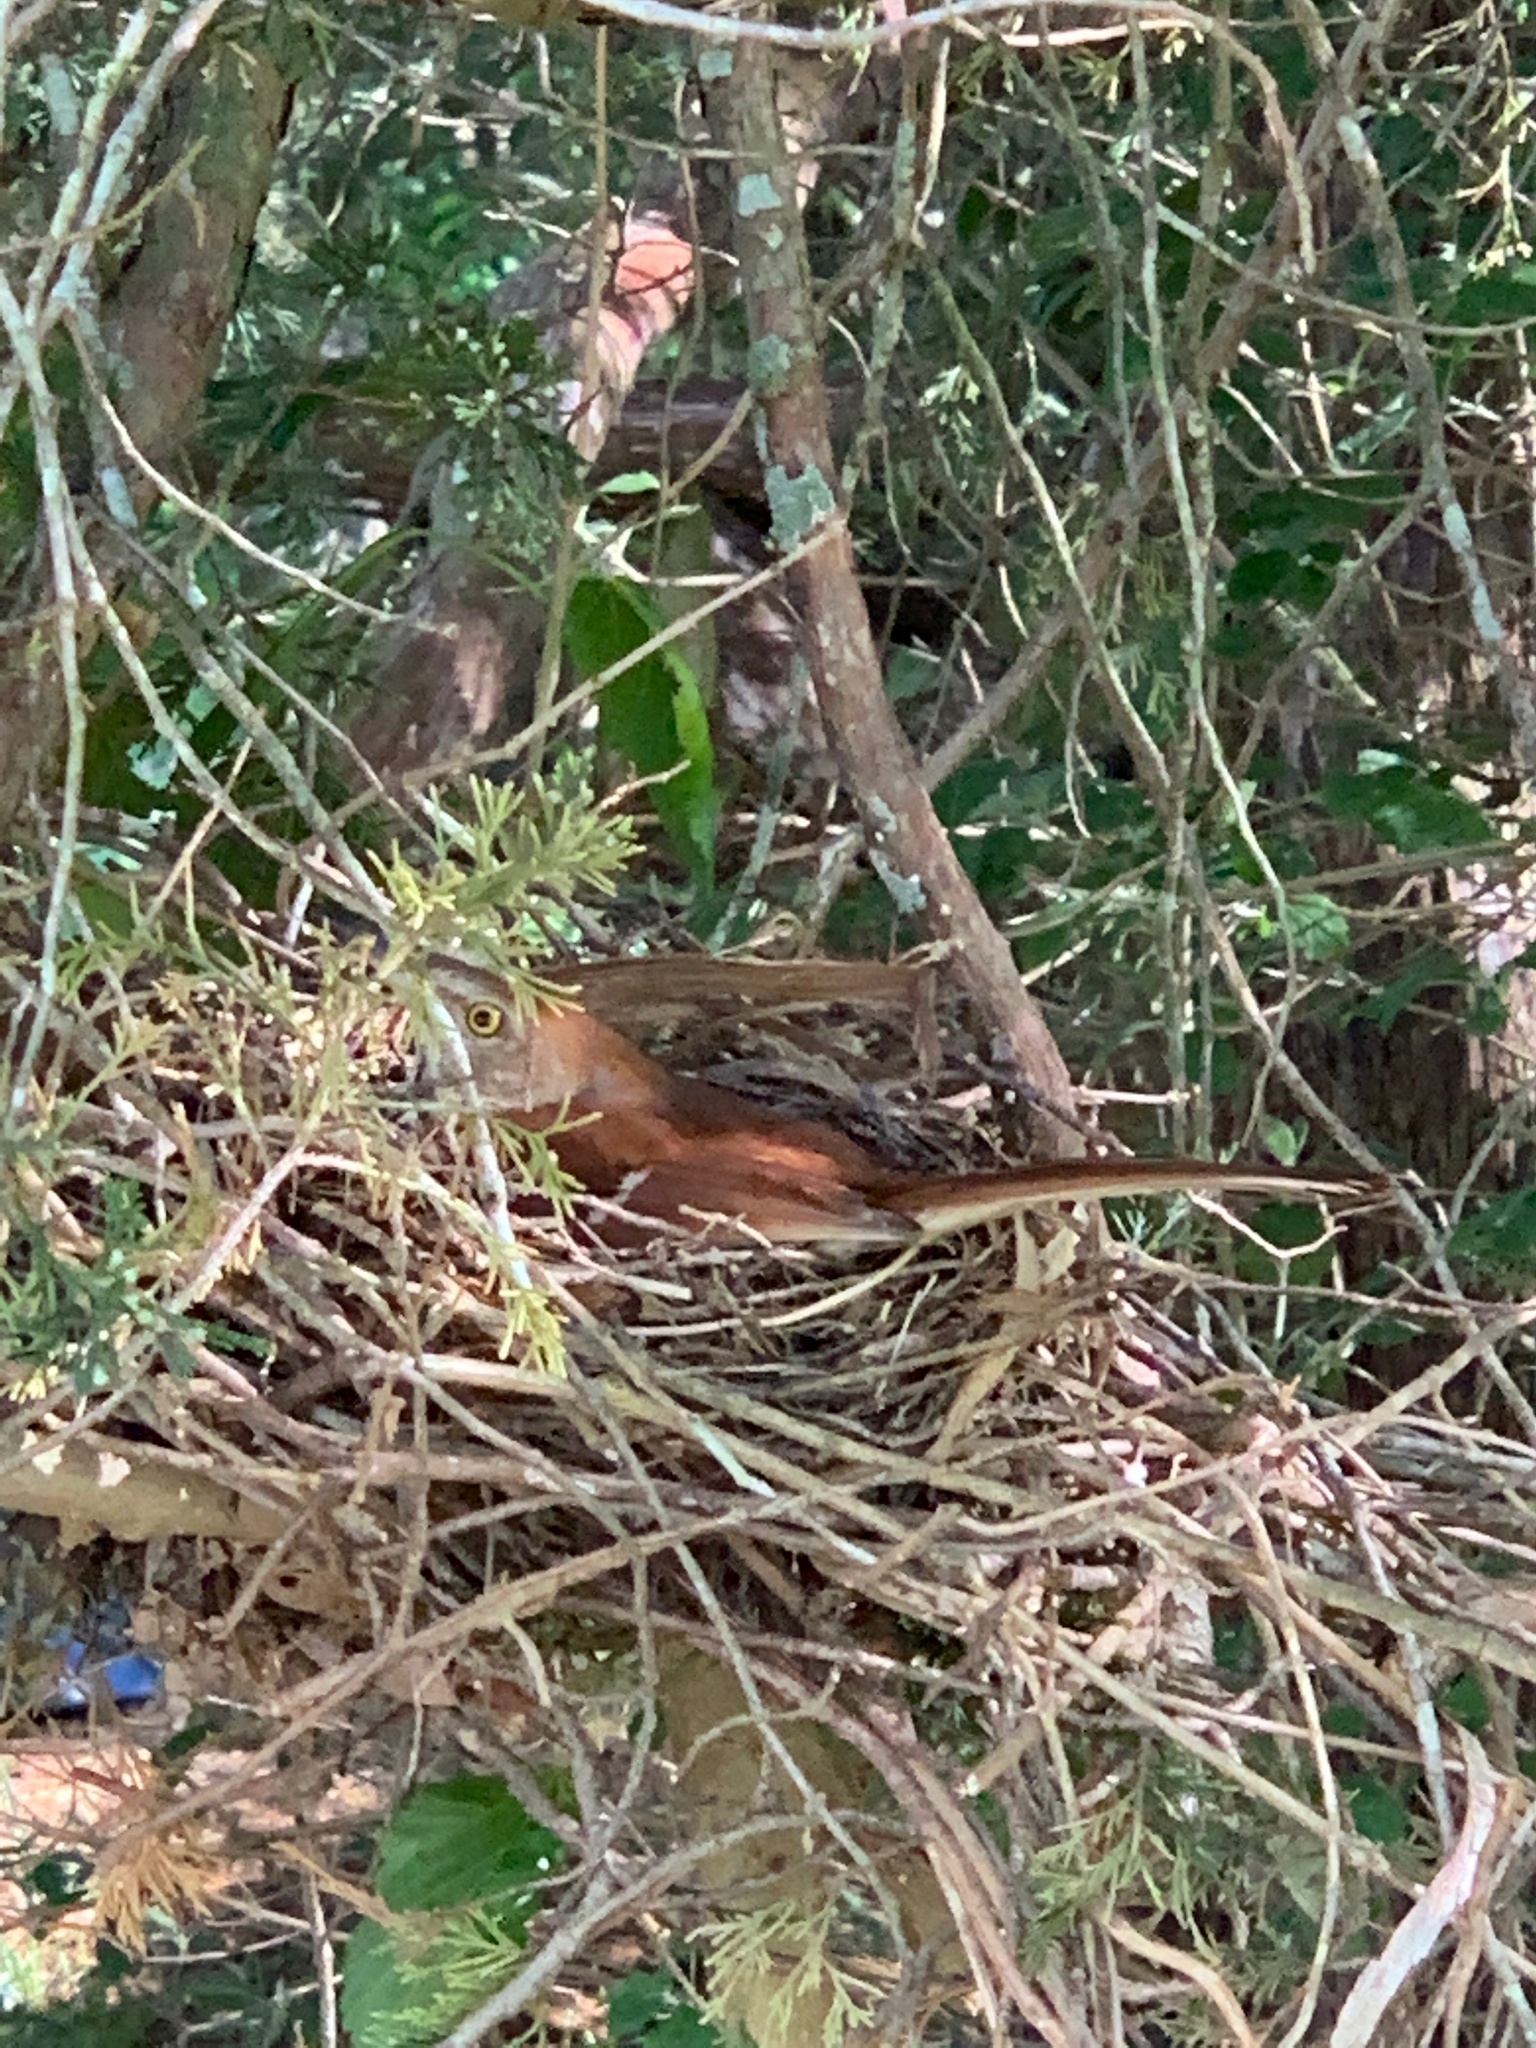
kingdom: Animalia
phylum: Chordata
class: Aves
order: Passeriformes
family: Mimidae
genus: Toxostoma
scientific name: Toxostoma rufum
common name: Brown thrasher
